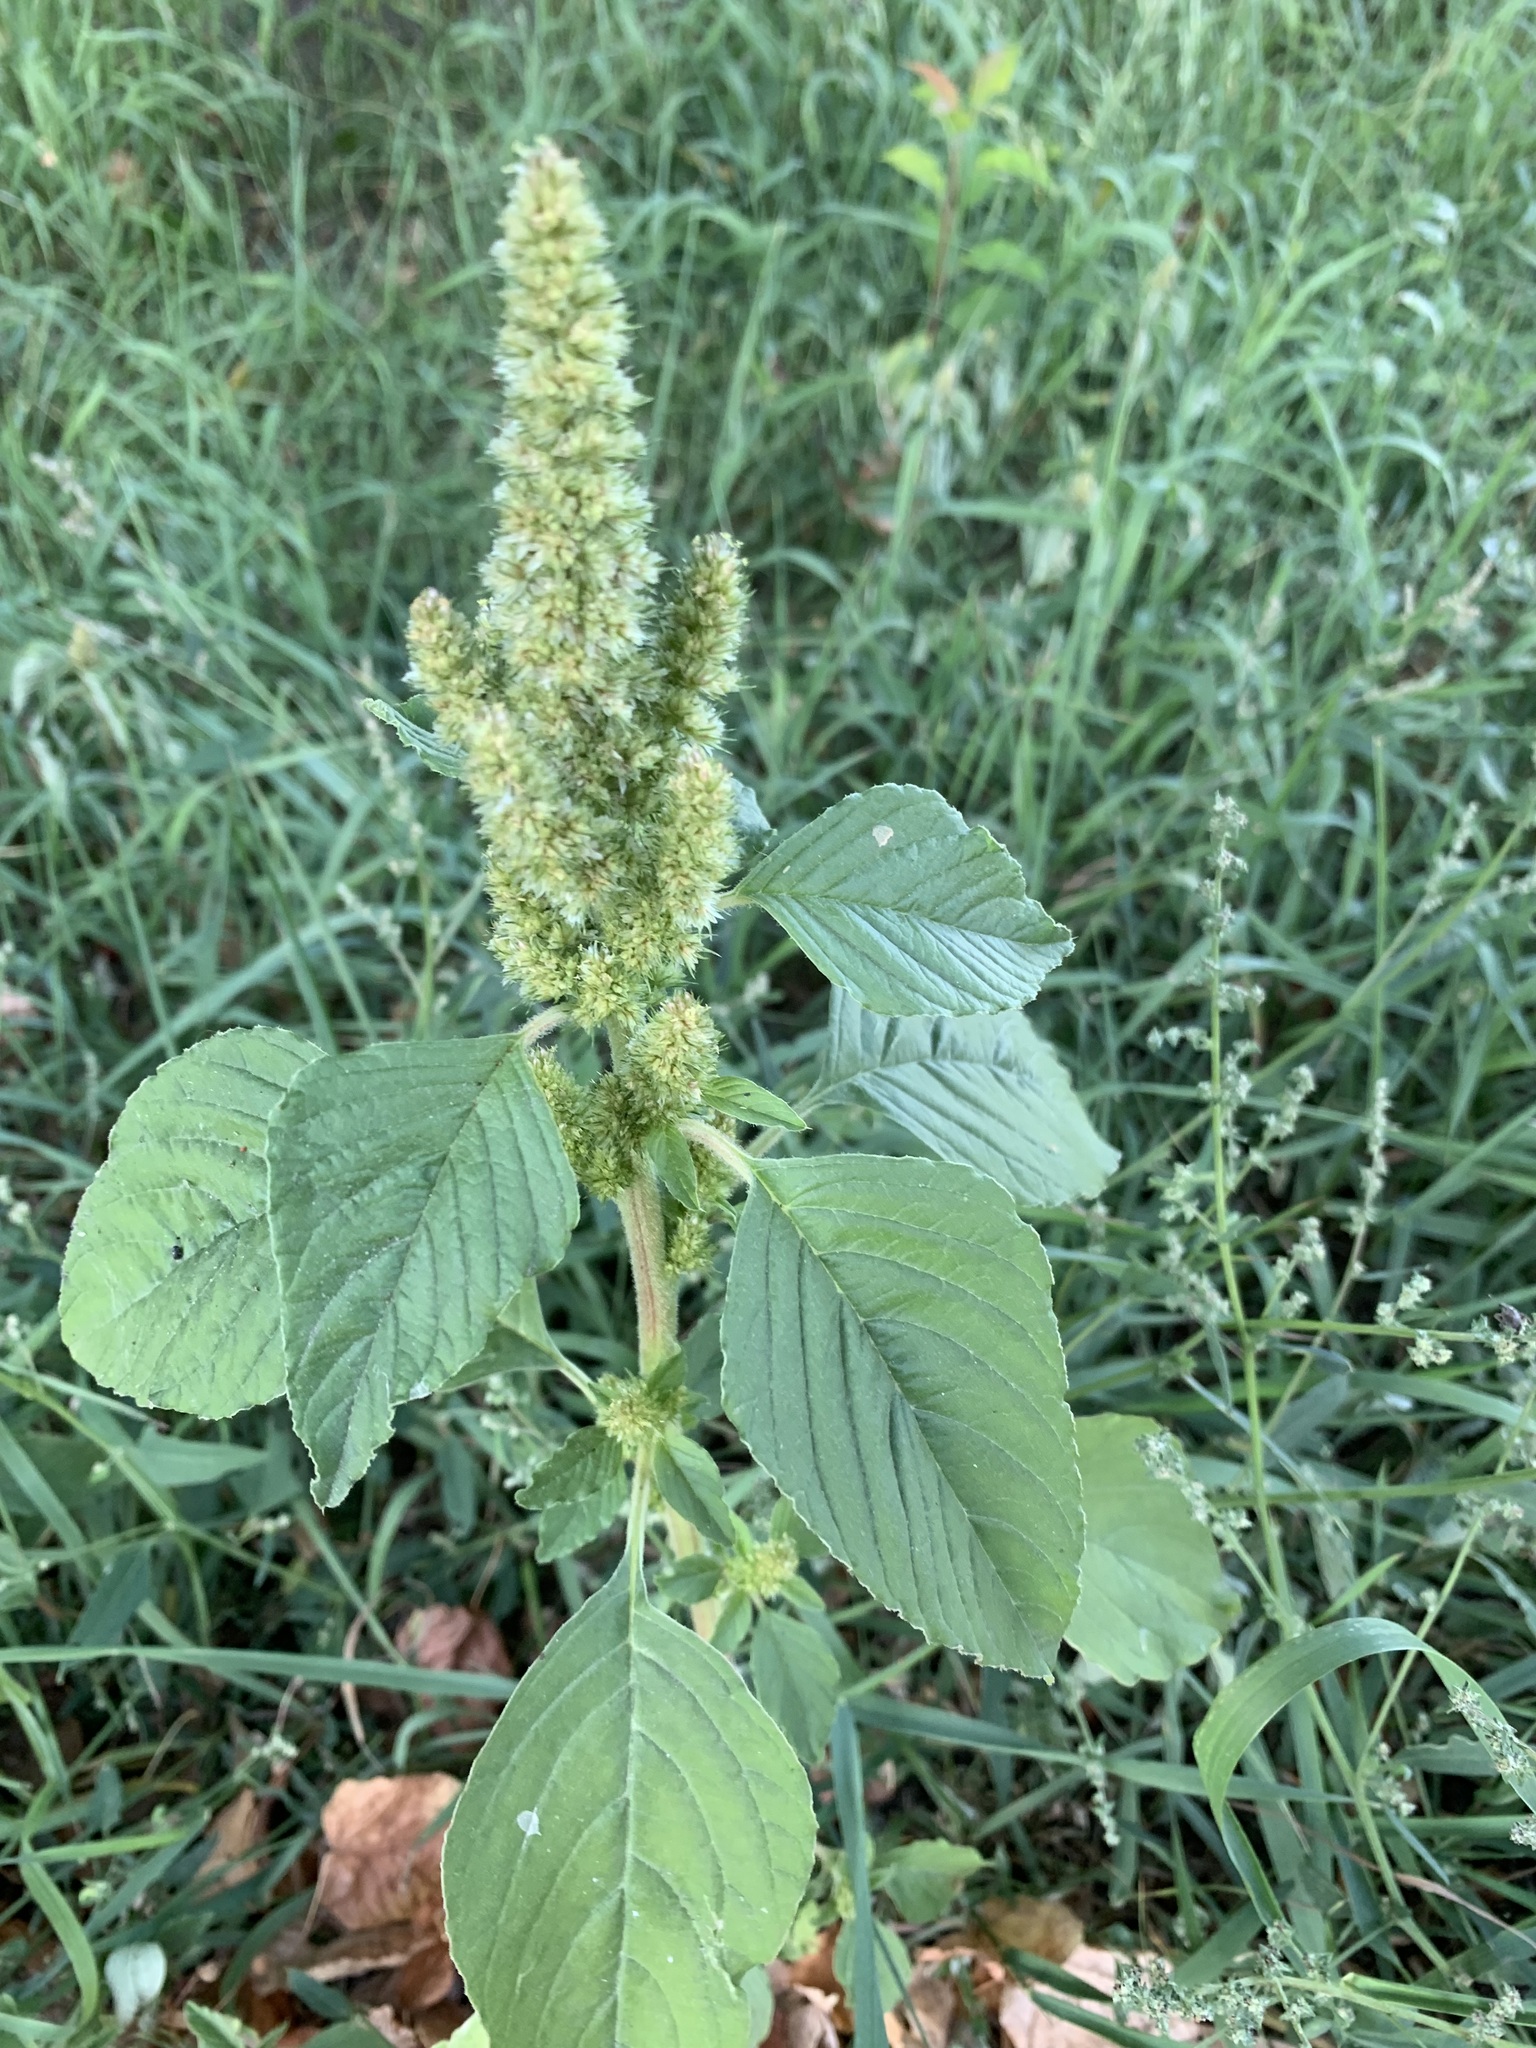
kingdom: Plantae
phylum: Tracheophyta
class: Magnoliopsida
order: Caryophyllales
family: Amaranthaceae
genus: Amaranthus
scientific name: Amaranthus retroflexus
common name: Redroot amaranth
